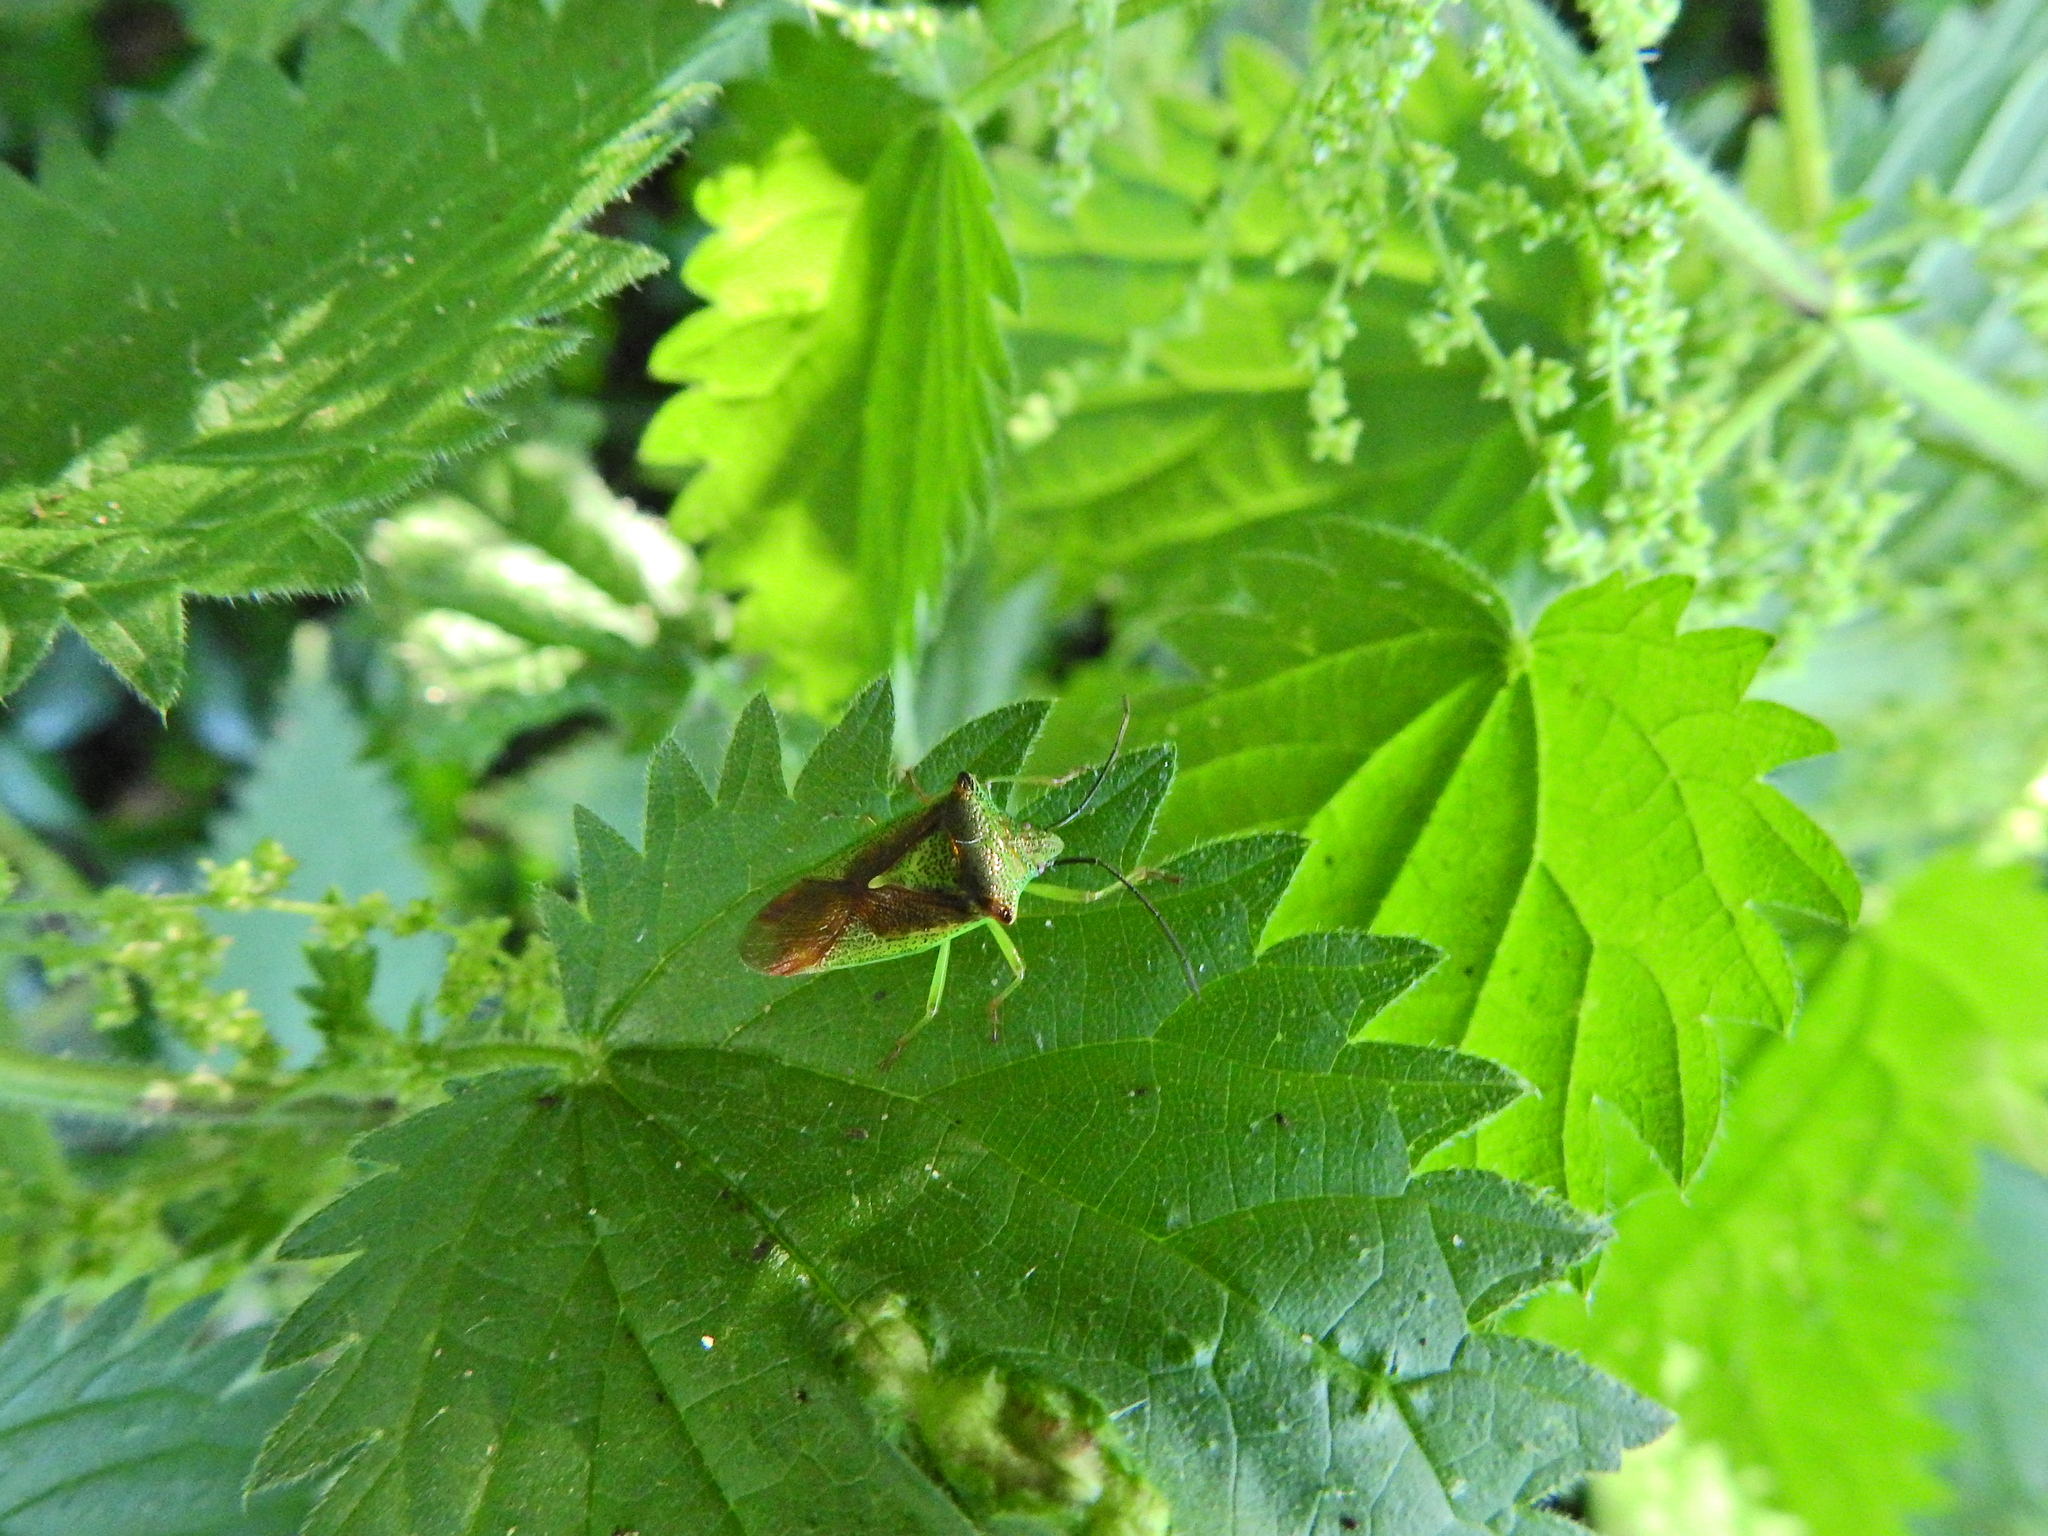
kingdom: Animalia
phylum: Arthropoda
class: Insecta
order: Hemiptera
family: Acanthosomatidae
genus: Acanthosoma
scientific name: Acanthosoma haemorrhoidale
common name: Hawthorn shieldbug
